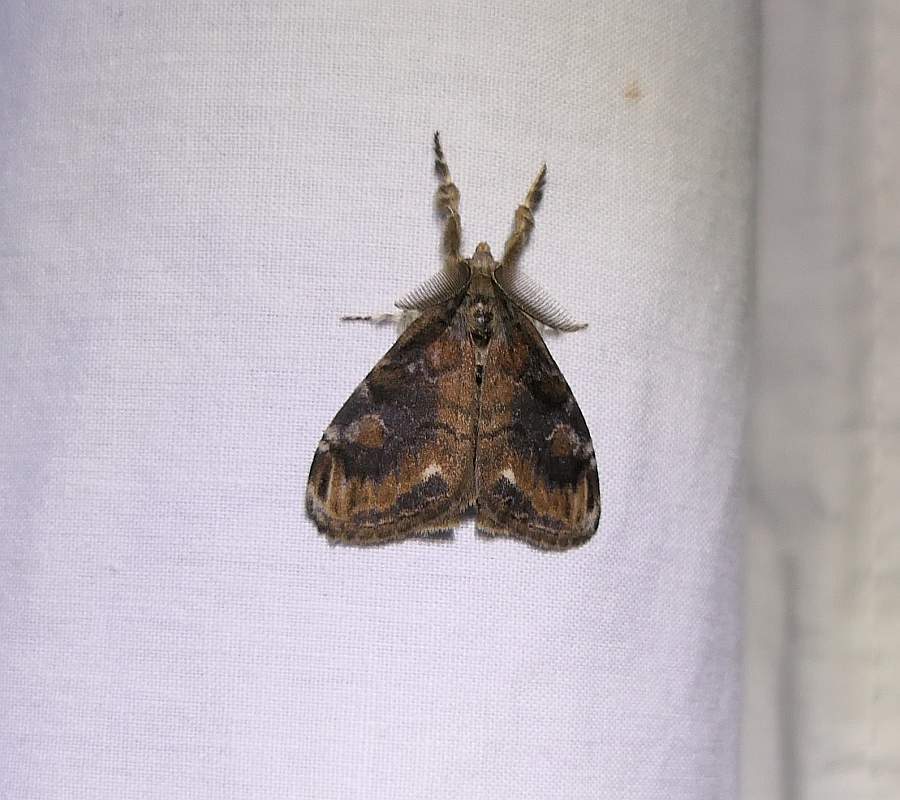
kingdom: Animalia
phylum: Arthropoda
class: Insecta
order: Lepidoptera
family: Erebidae
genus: Orgyia
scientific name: Orgyia definita
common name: Definite tussock moth
